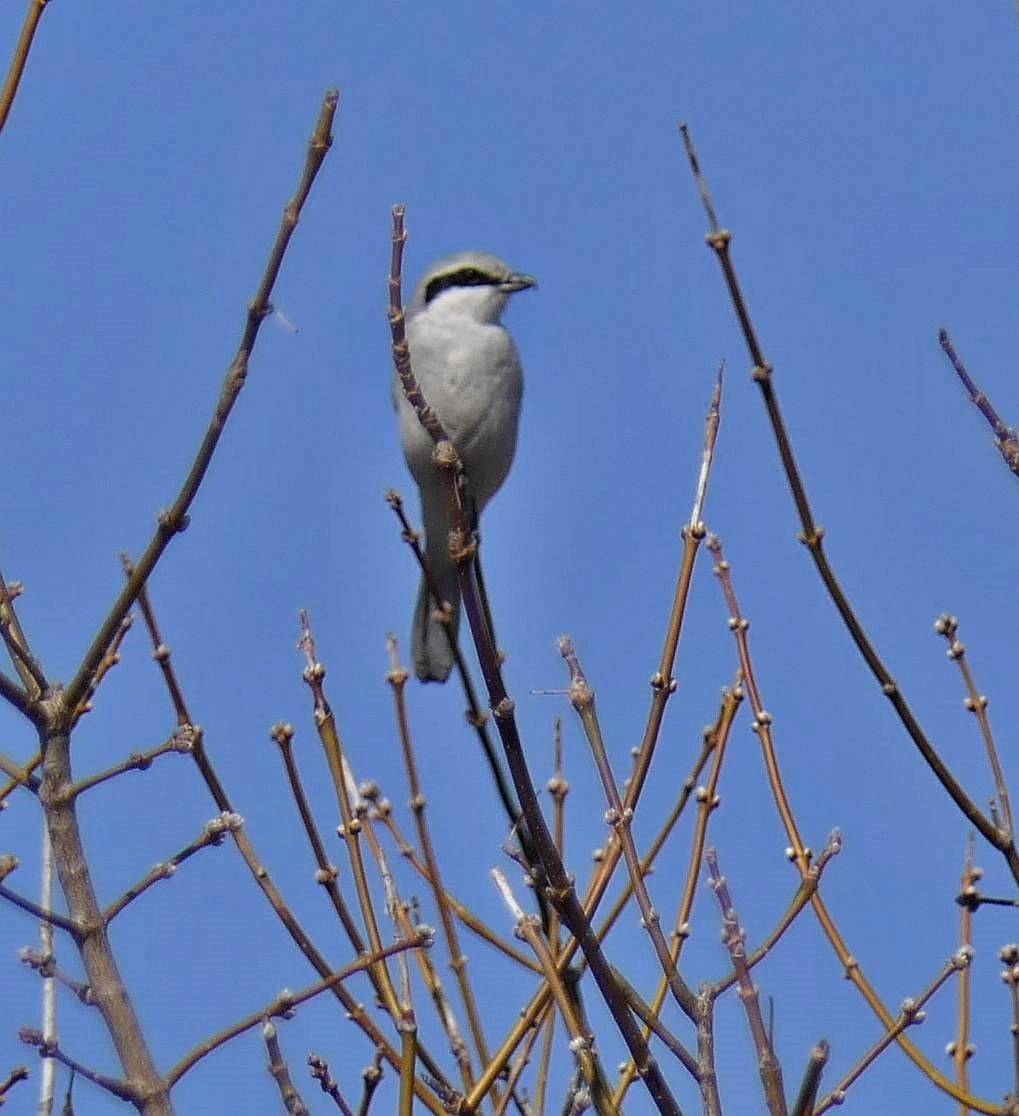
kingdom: Animalia
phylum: Chordata
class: Aves
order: Passeriformes
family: Laniidae
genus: Lanius
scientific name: Lanius borealis
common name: Northern shrike
